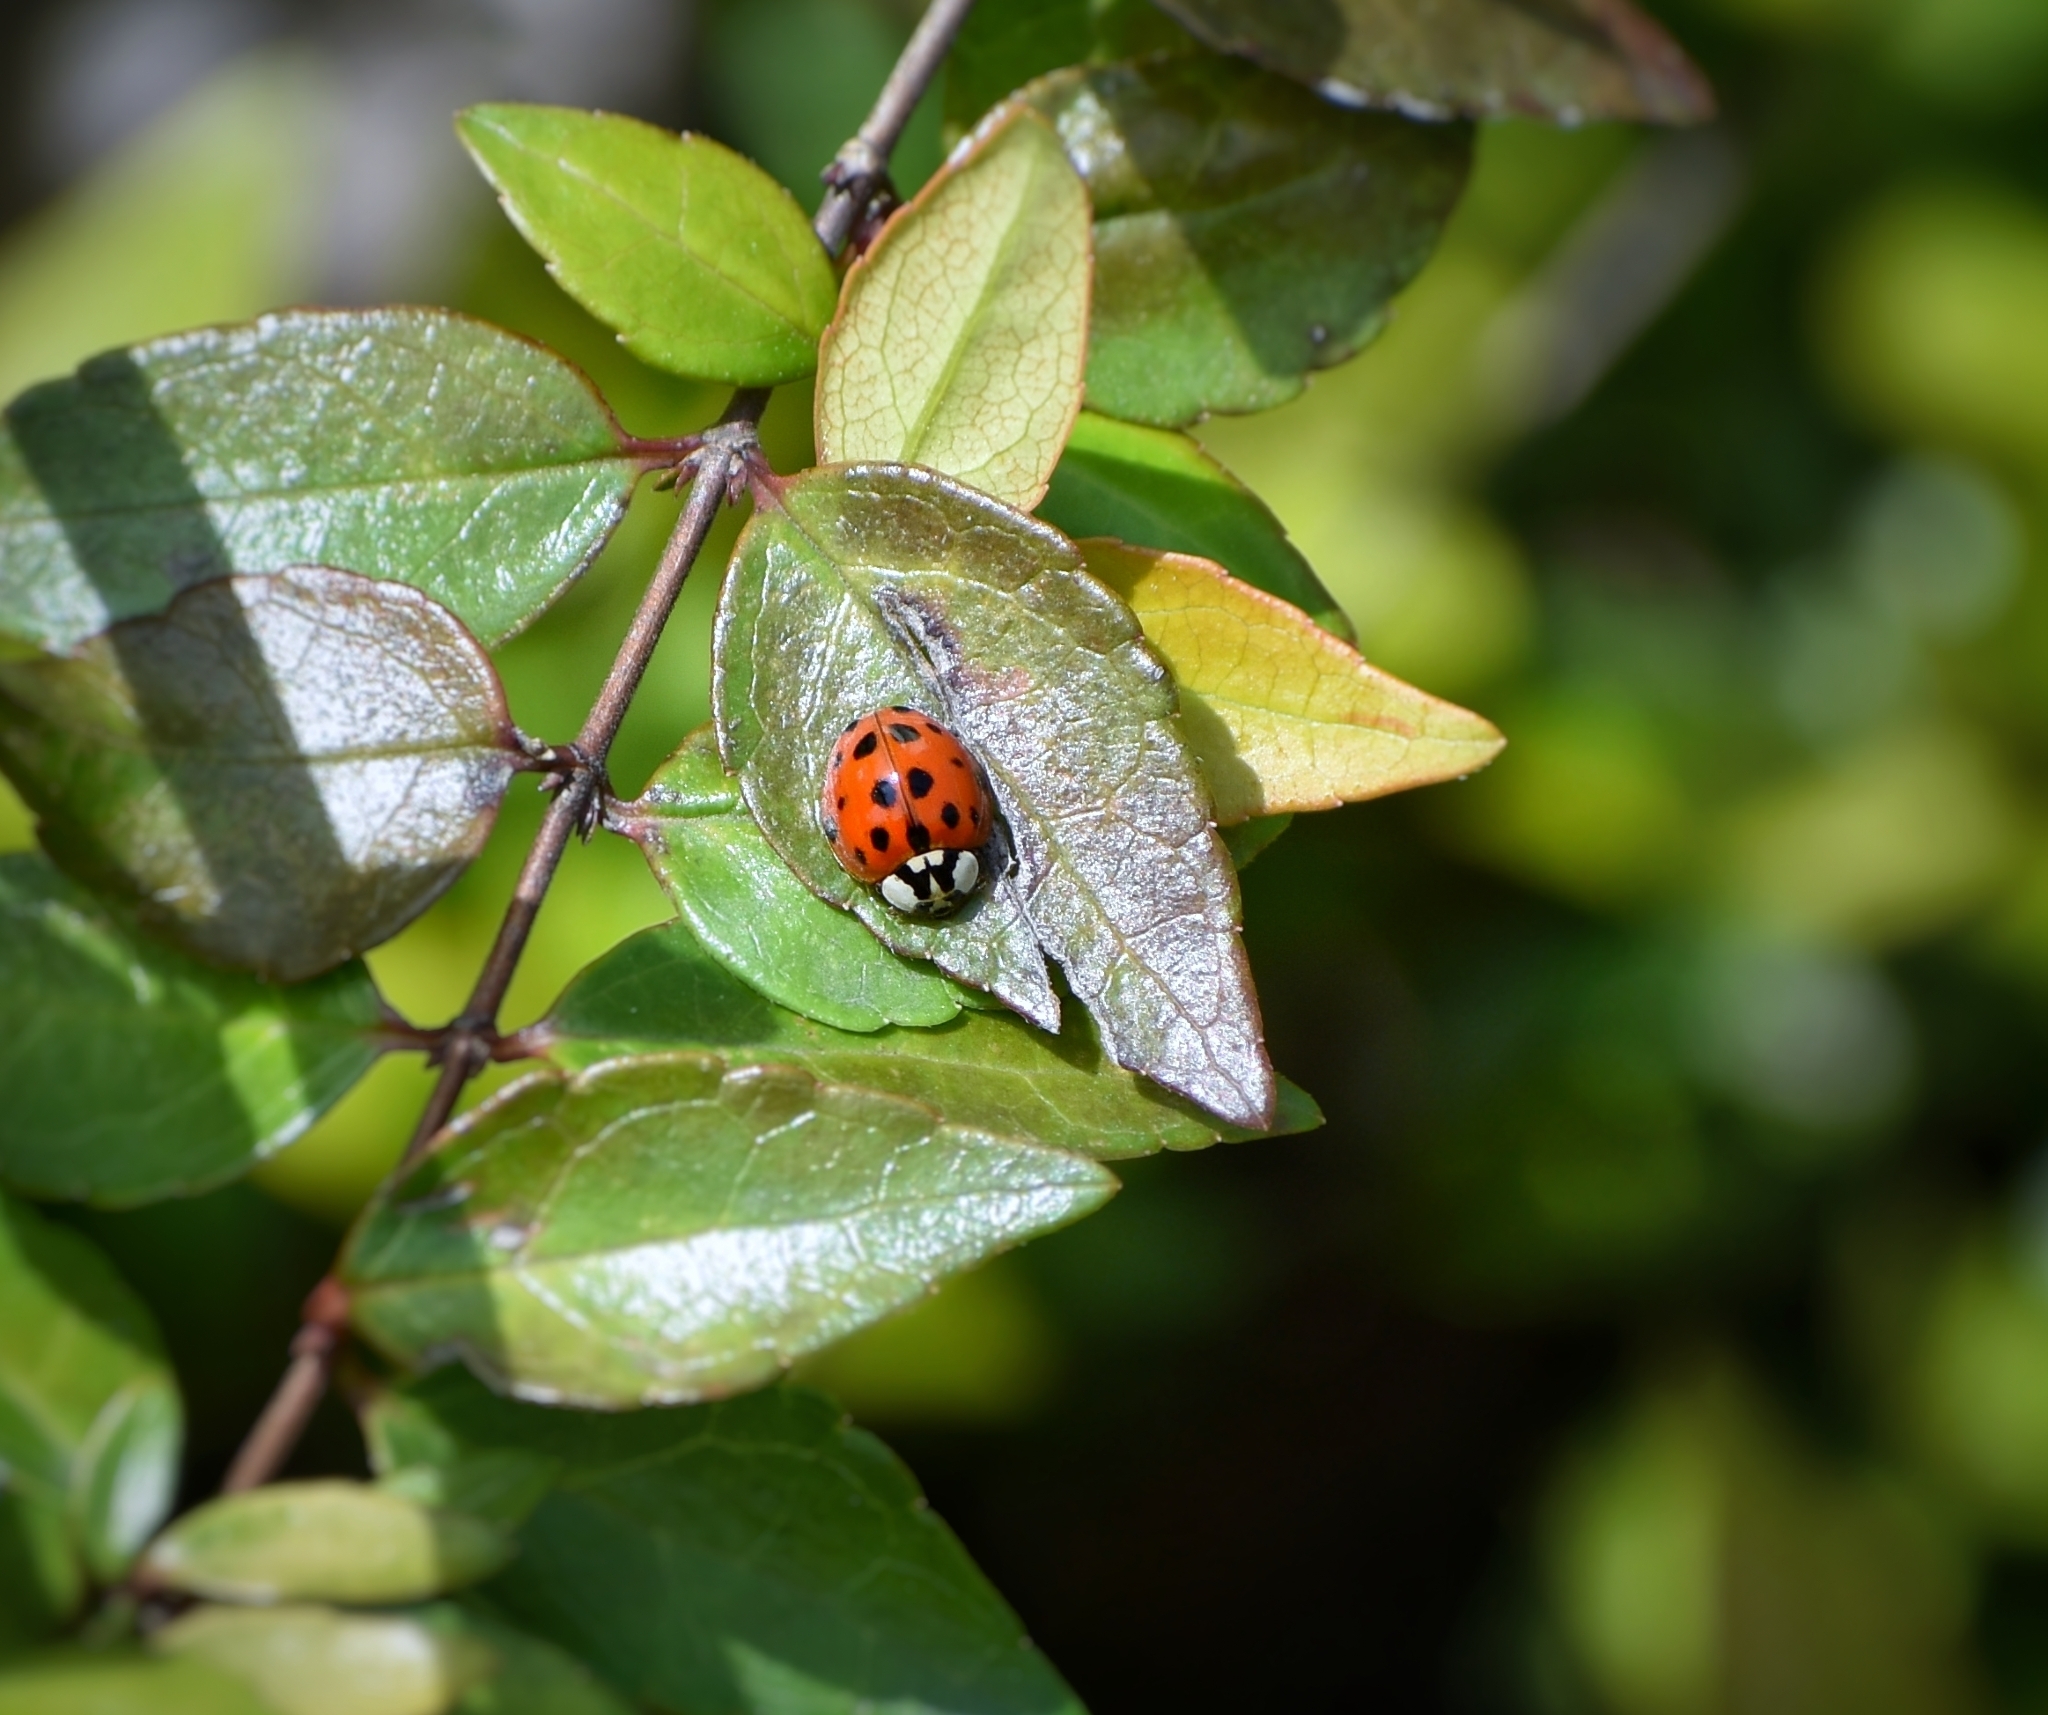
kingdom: Animalia
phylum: Arthropoda
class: Insecta
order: Coleoptera
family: Coccinellidae
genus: Harmonia
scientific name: Harmonia axyridis
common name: Harlequin ladybird
